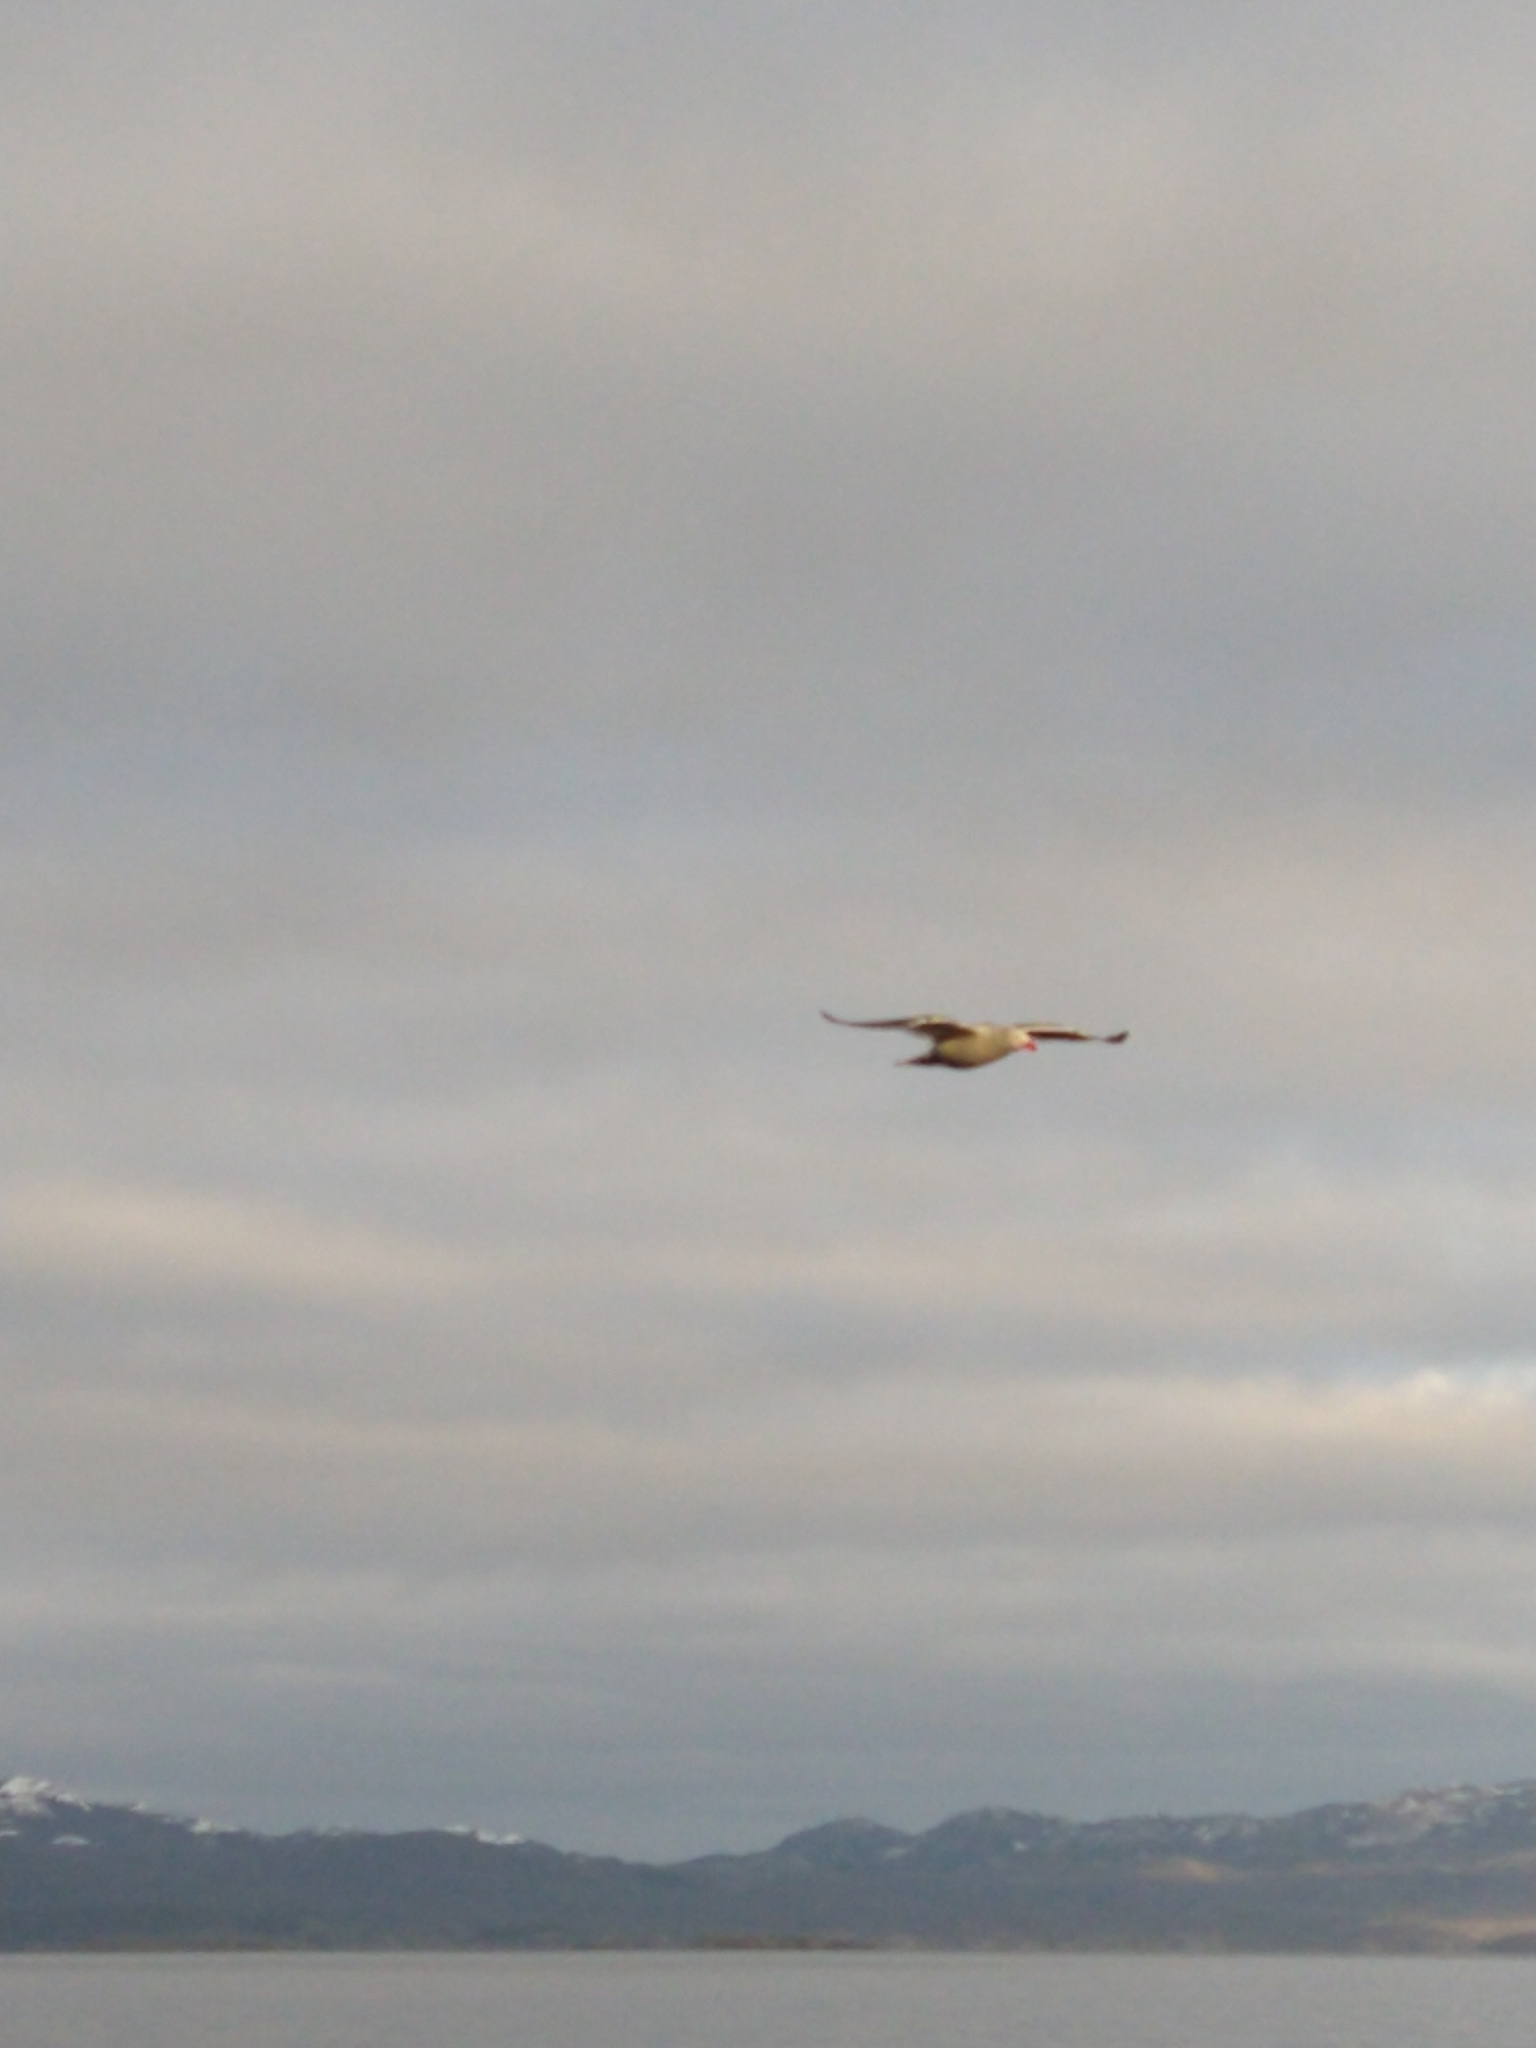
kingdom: Animalia
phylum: Chordata
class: Aves
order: Charadriiformes
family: Laridae
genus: Leucophaeus
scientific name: Leucophaeus scoresbii
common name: Dolphin gull
